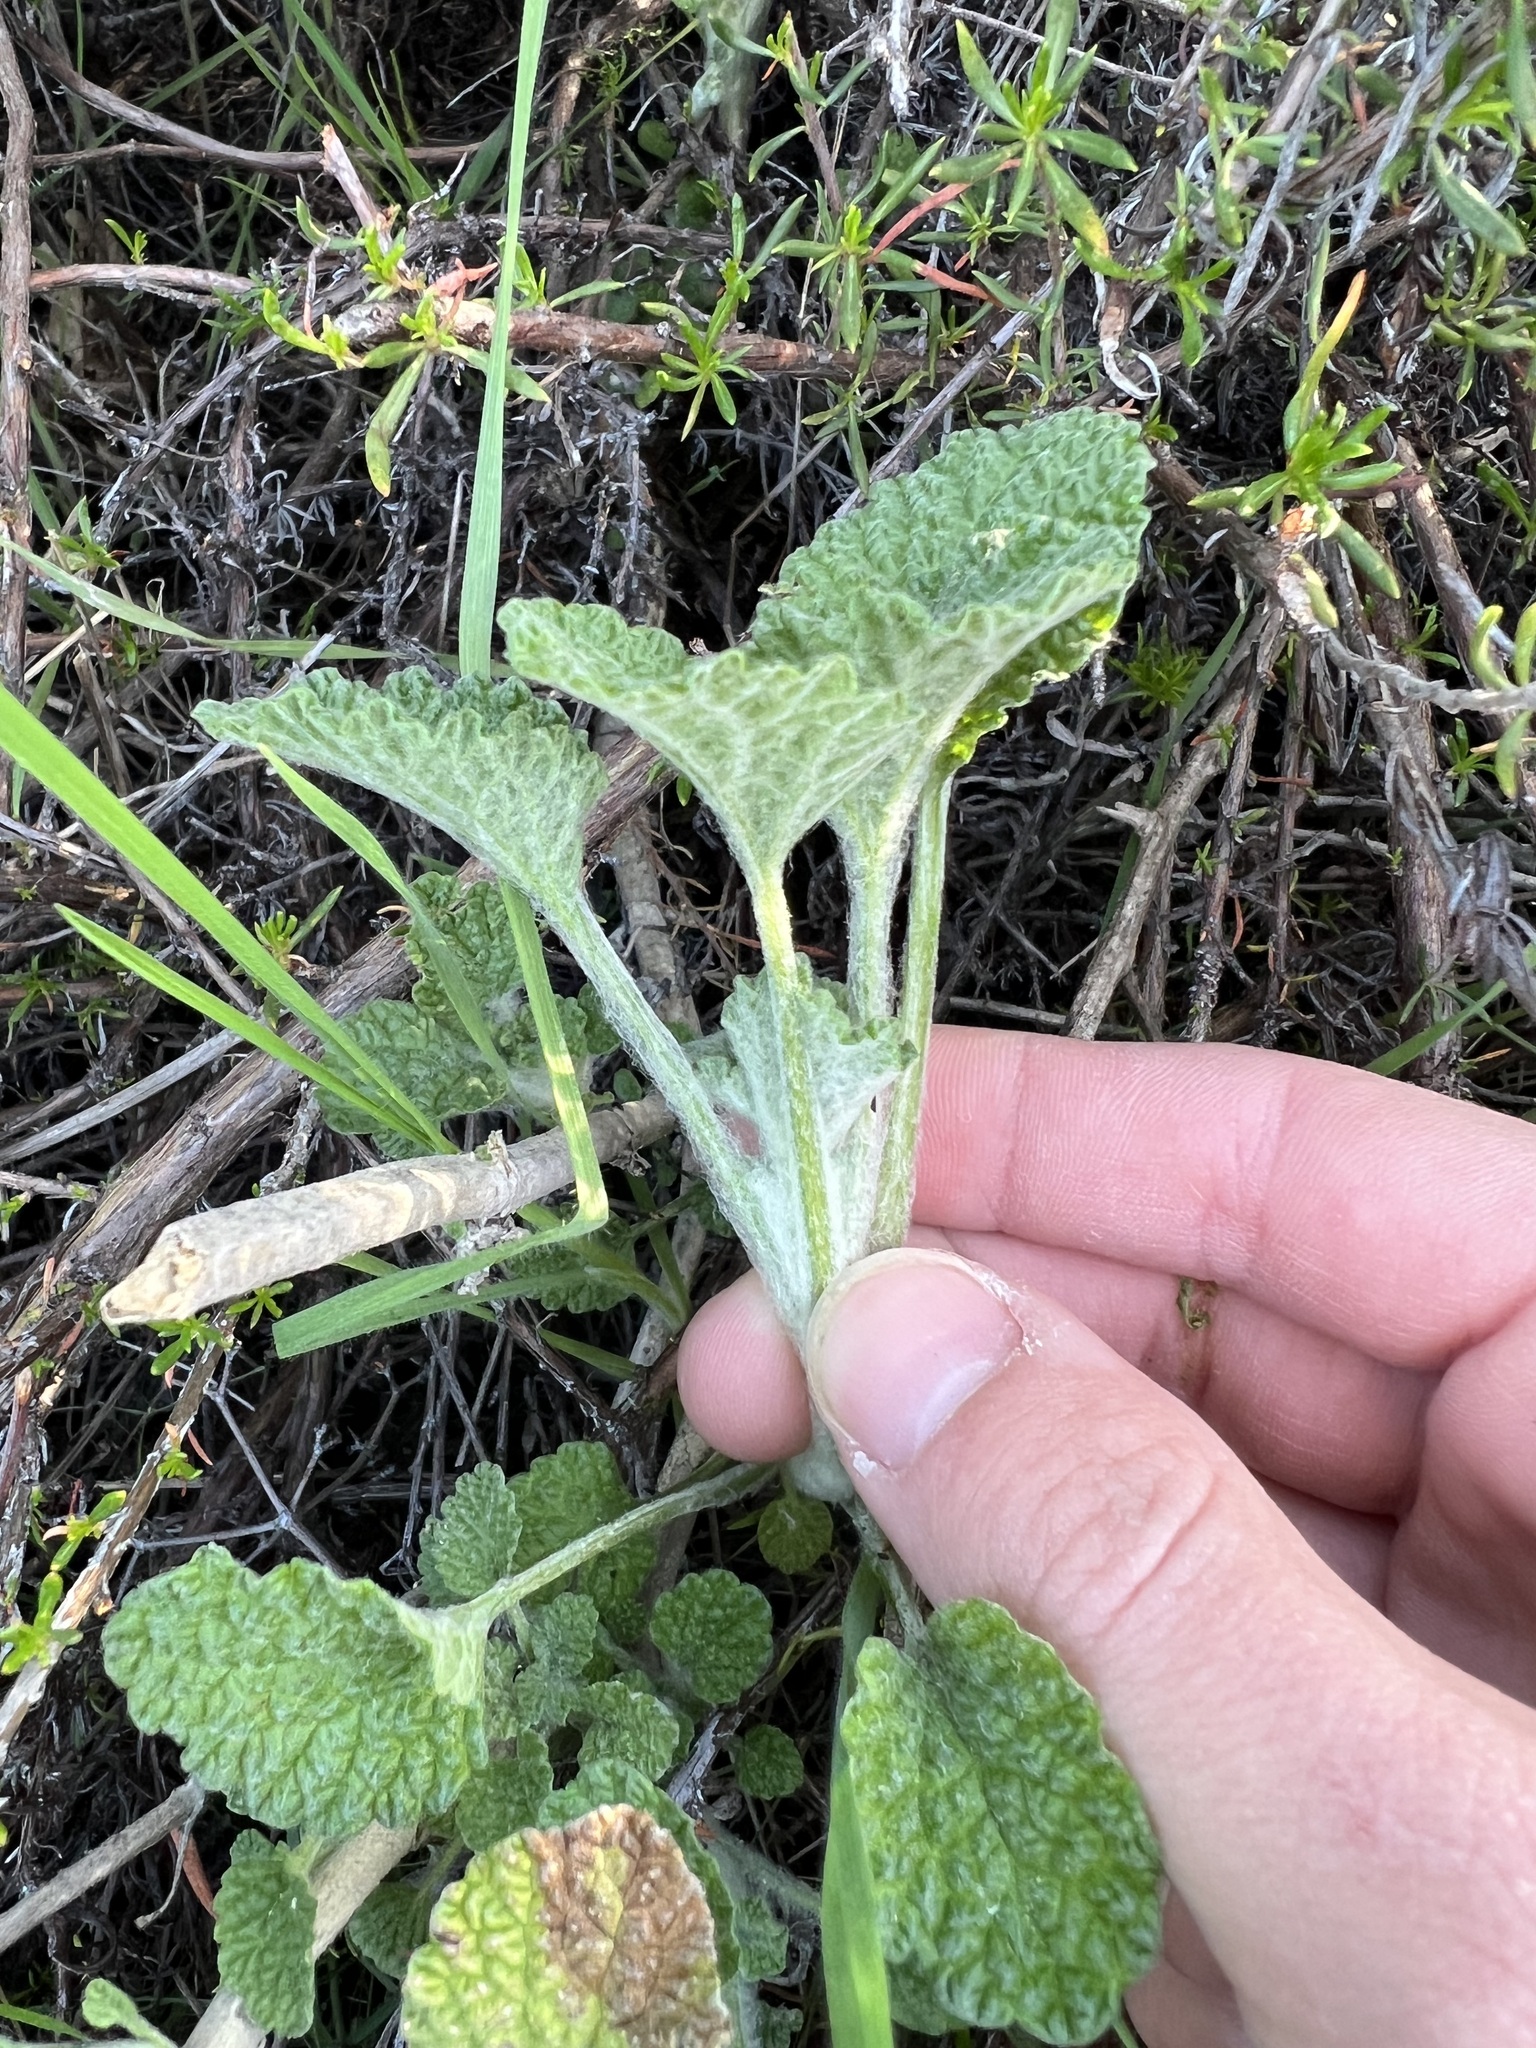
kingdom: Plantae
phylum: Tracheophyta
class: Magnoliopsida
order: Lamiales
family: Lamiaceae
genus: Marrubium
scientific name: Marrubium vulgare
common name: Horehound
